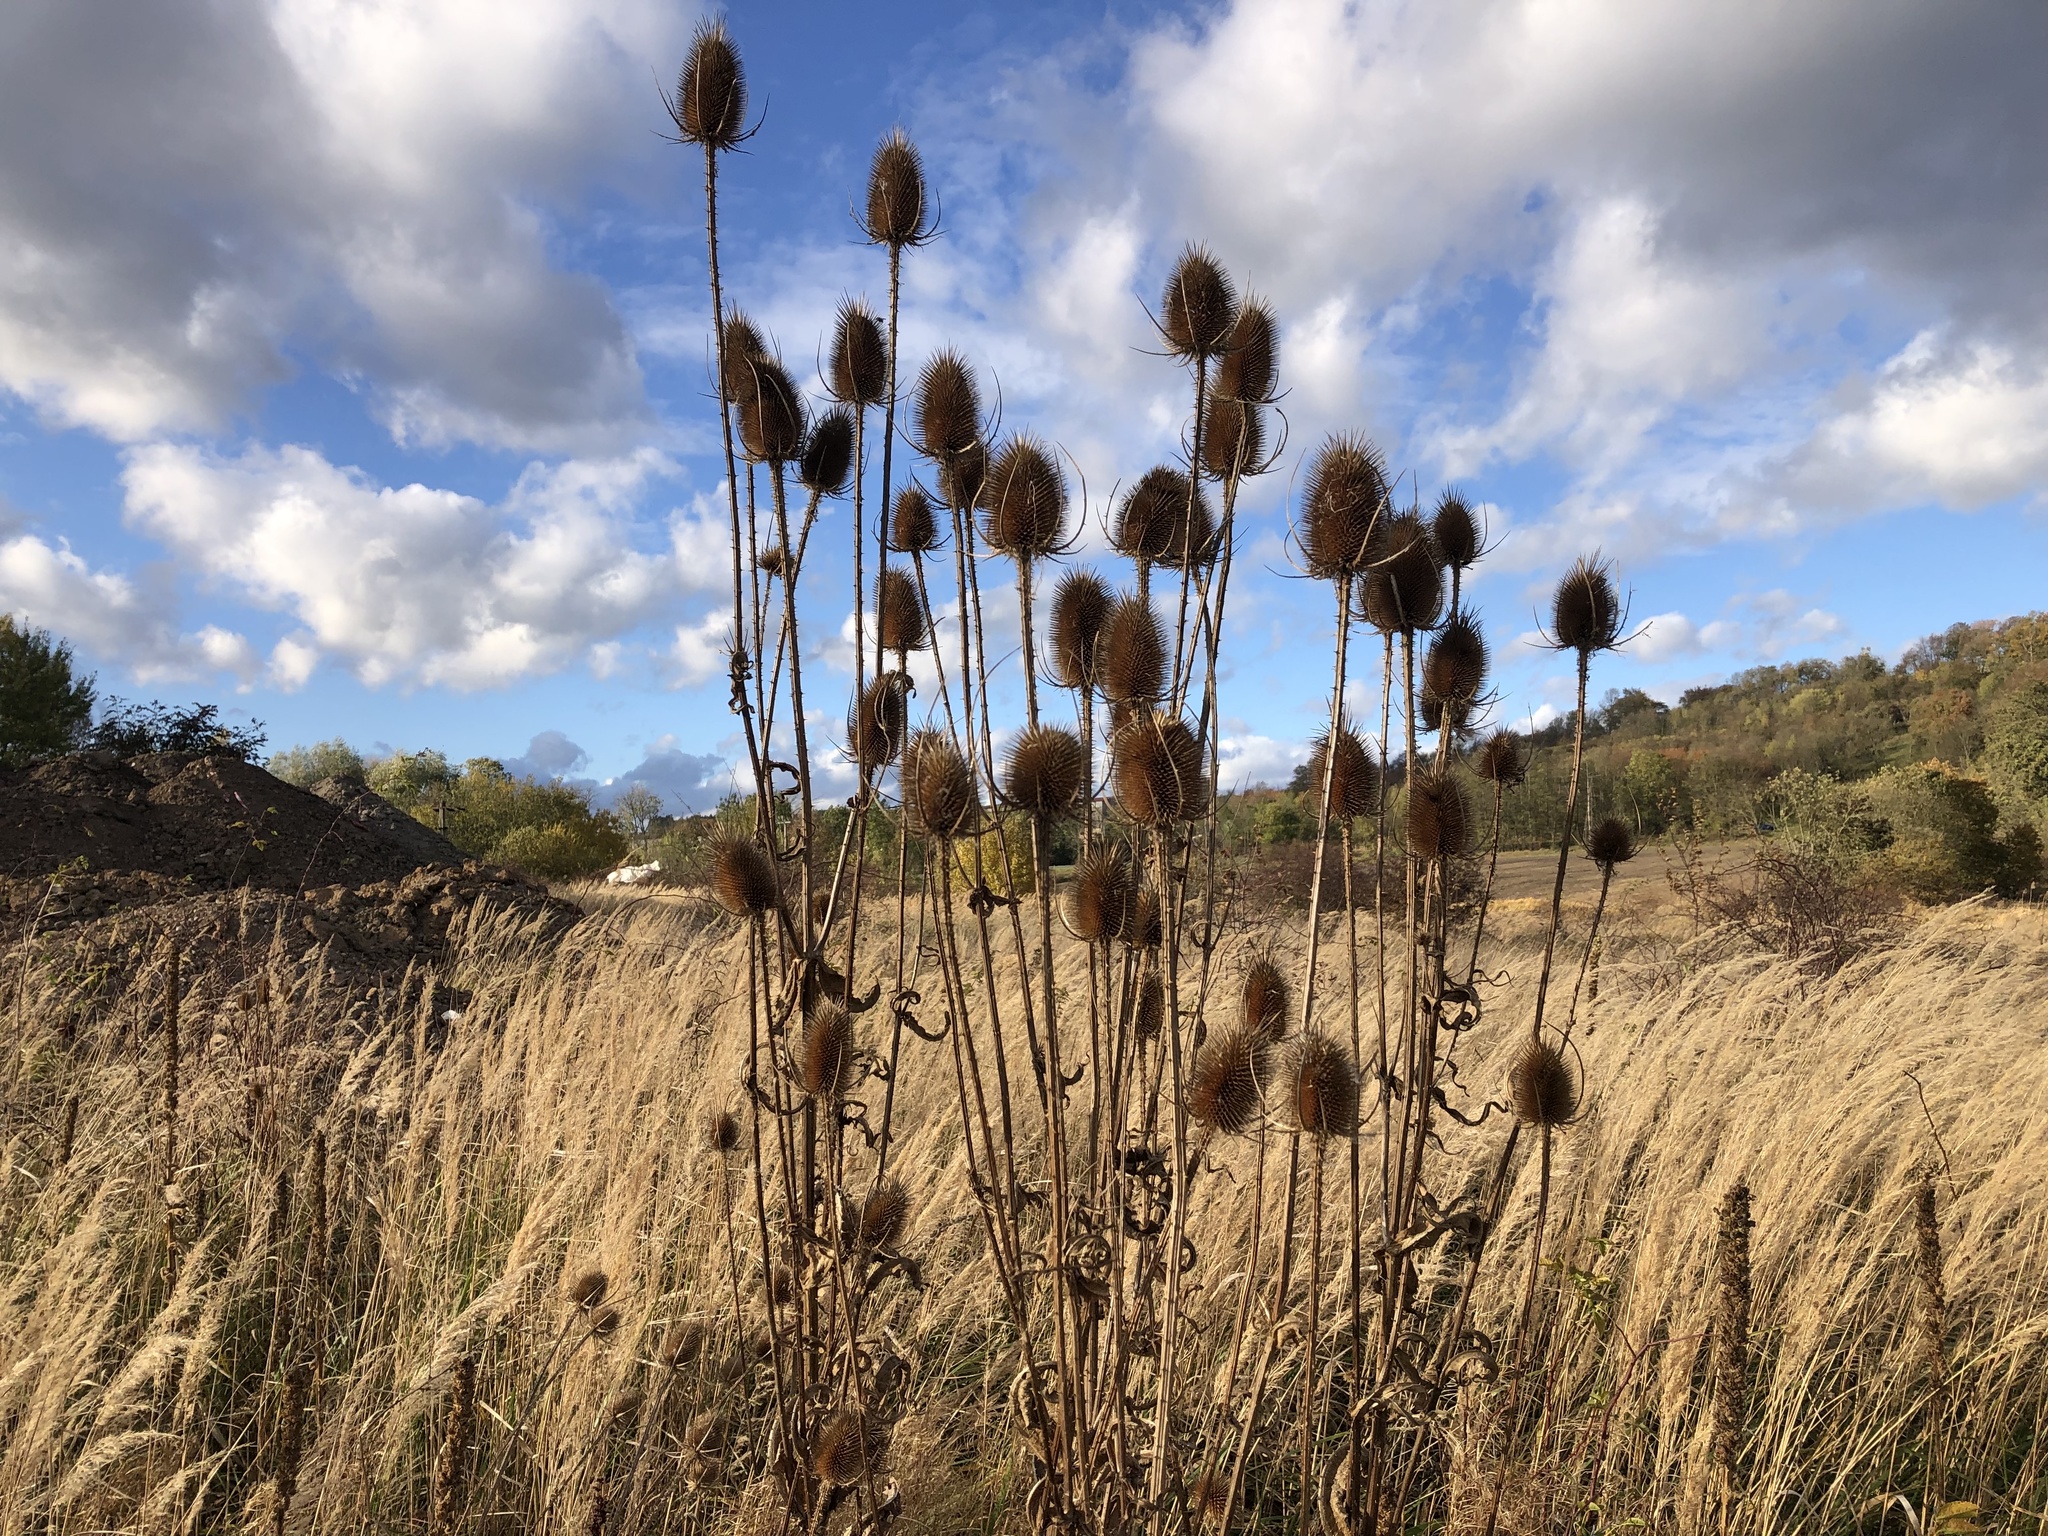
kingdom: Plantae
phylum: Tracheophyta
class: Magnoliopsida
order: Dipsacales
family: Caprifoliaceae
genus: Dipsacus
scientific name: Dipsacus fullonum
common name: Teasel
